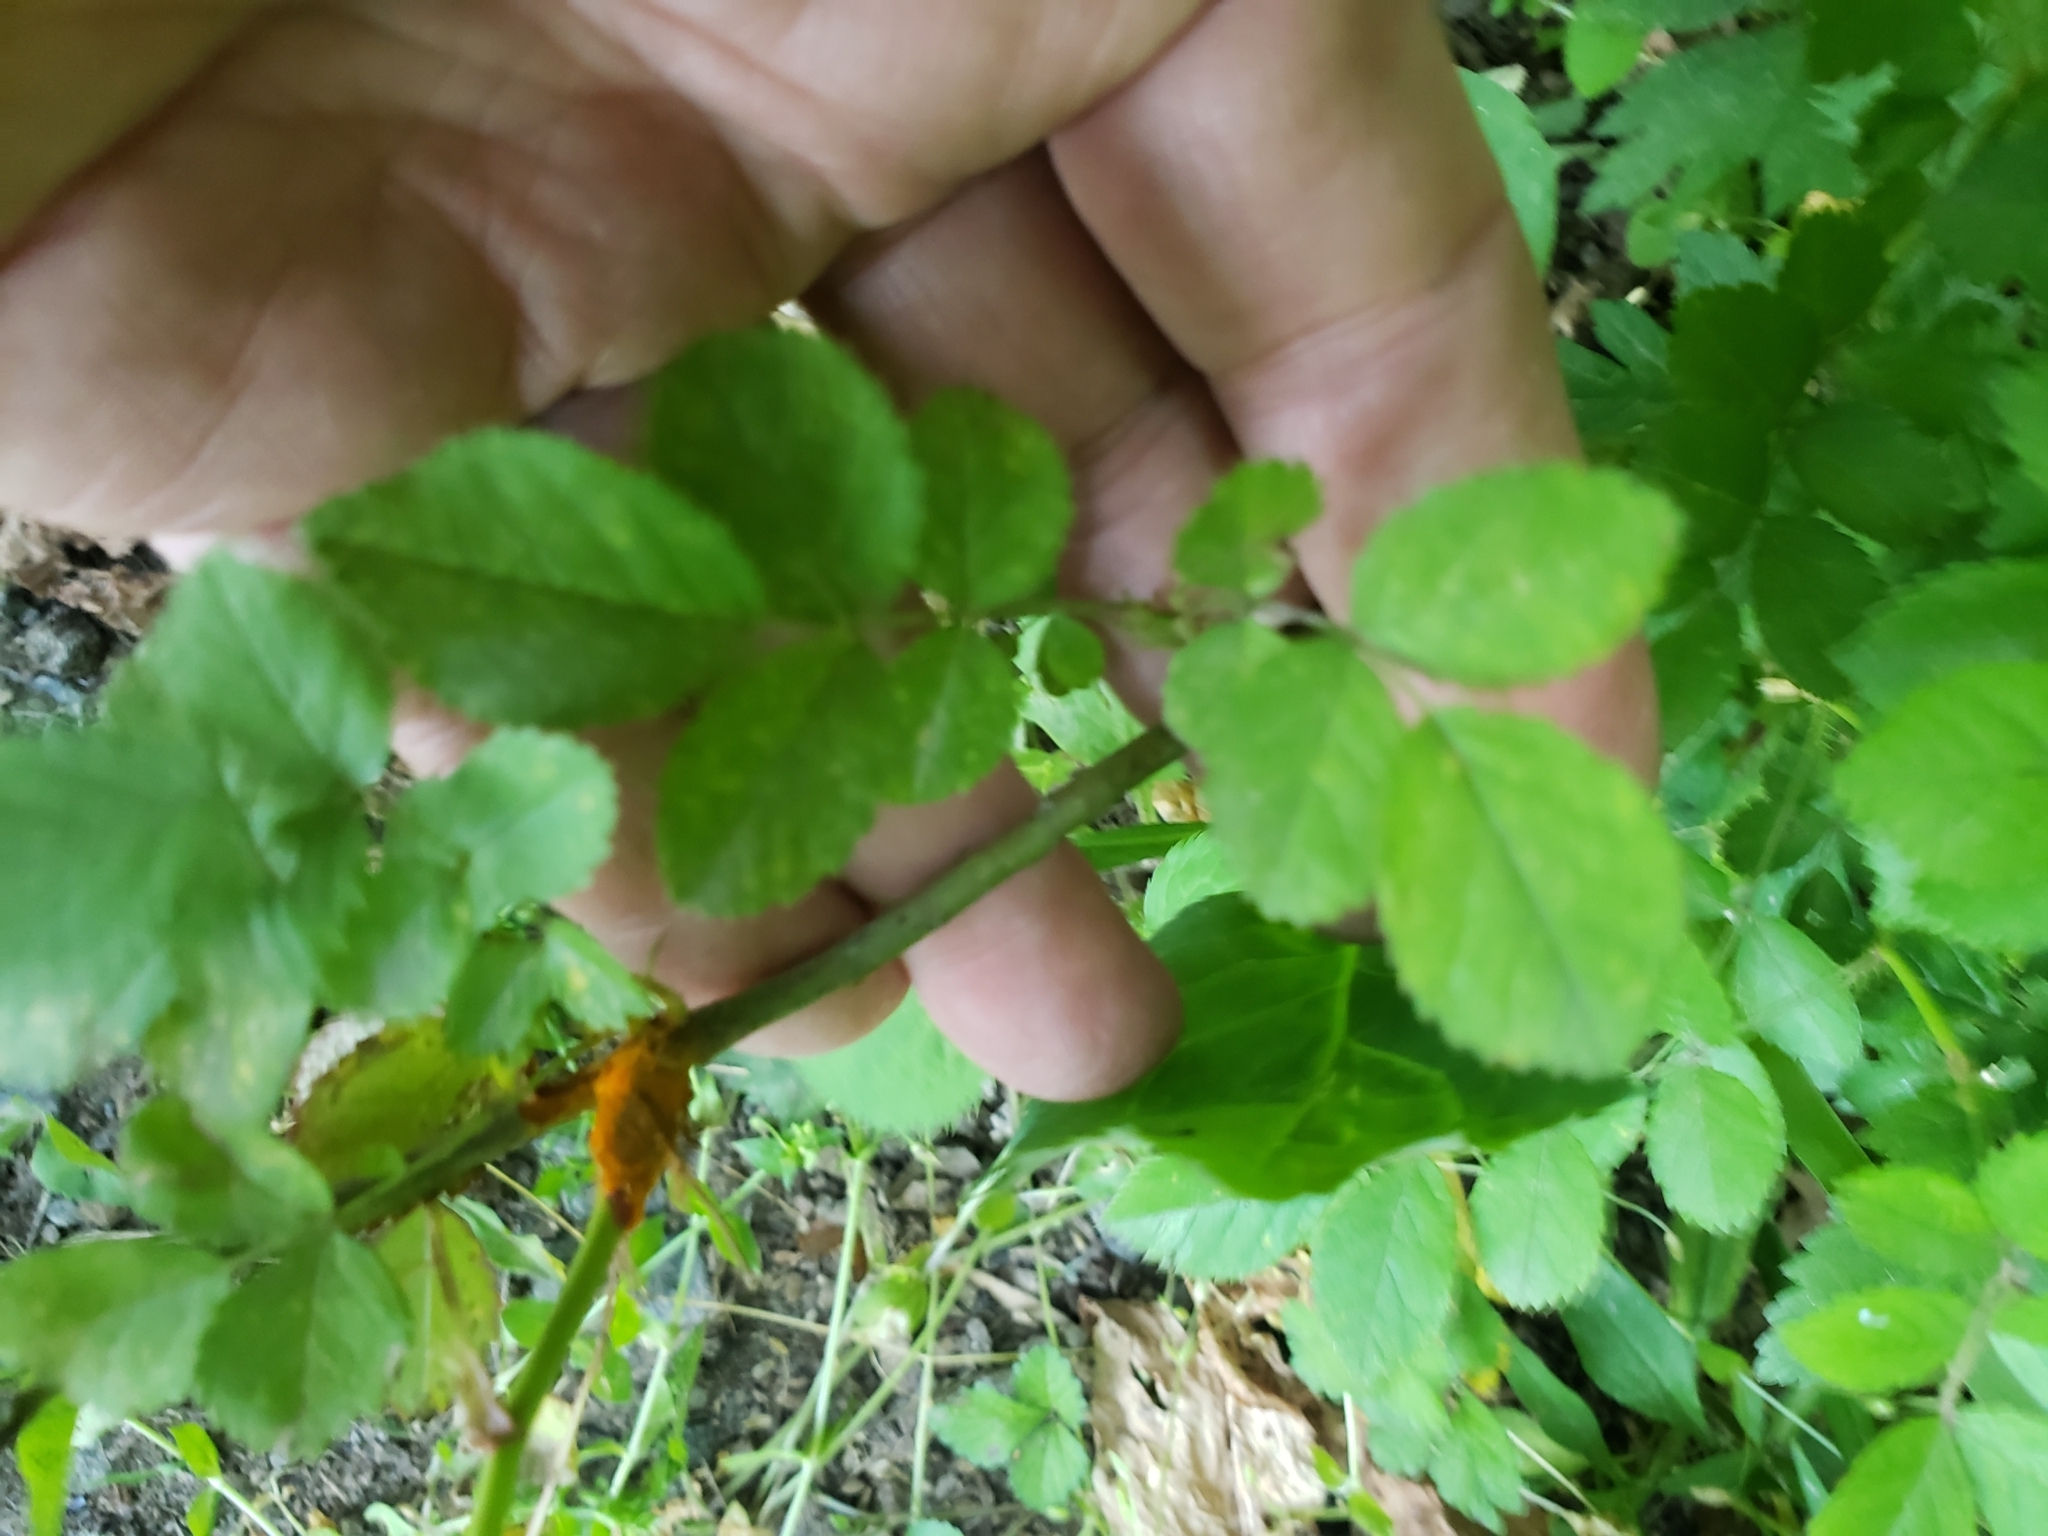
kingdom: Fungi
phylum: Basidiomycota
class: Pucciniomycetes
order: Pucciniales
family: Phragmidiaceae
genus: Phragmidium
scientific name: Phragmidium rosae-multiflorae
